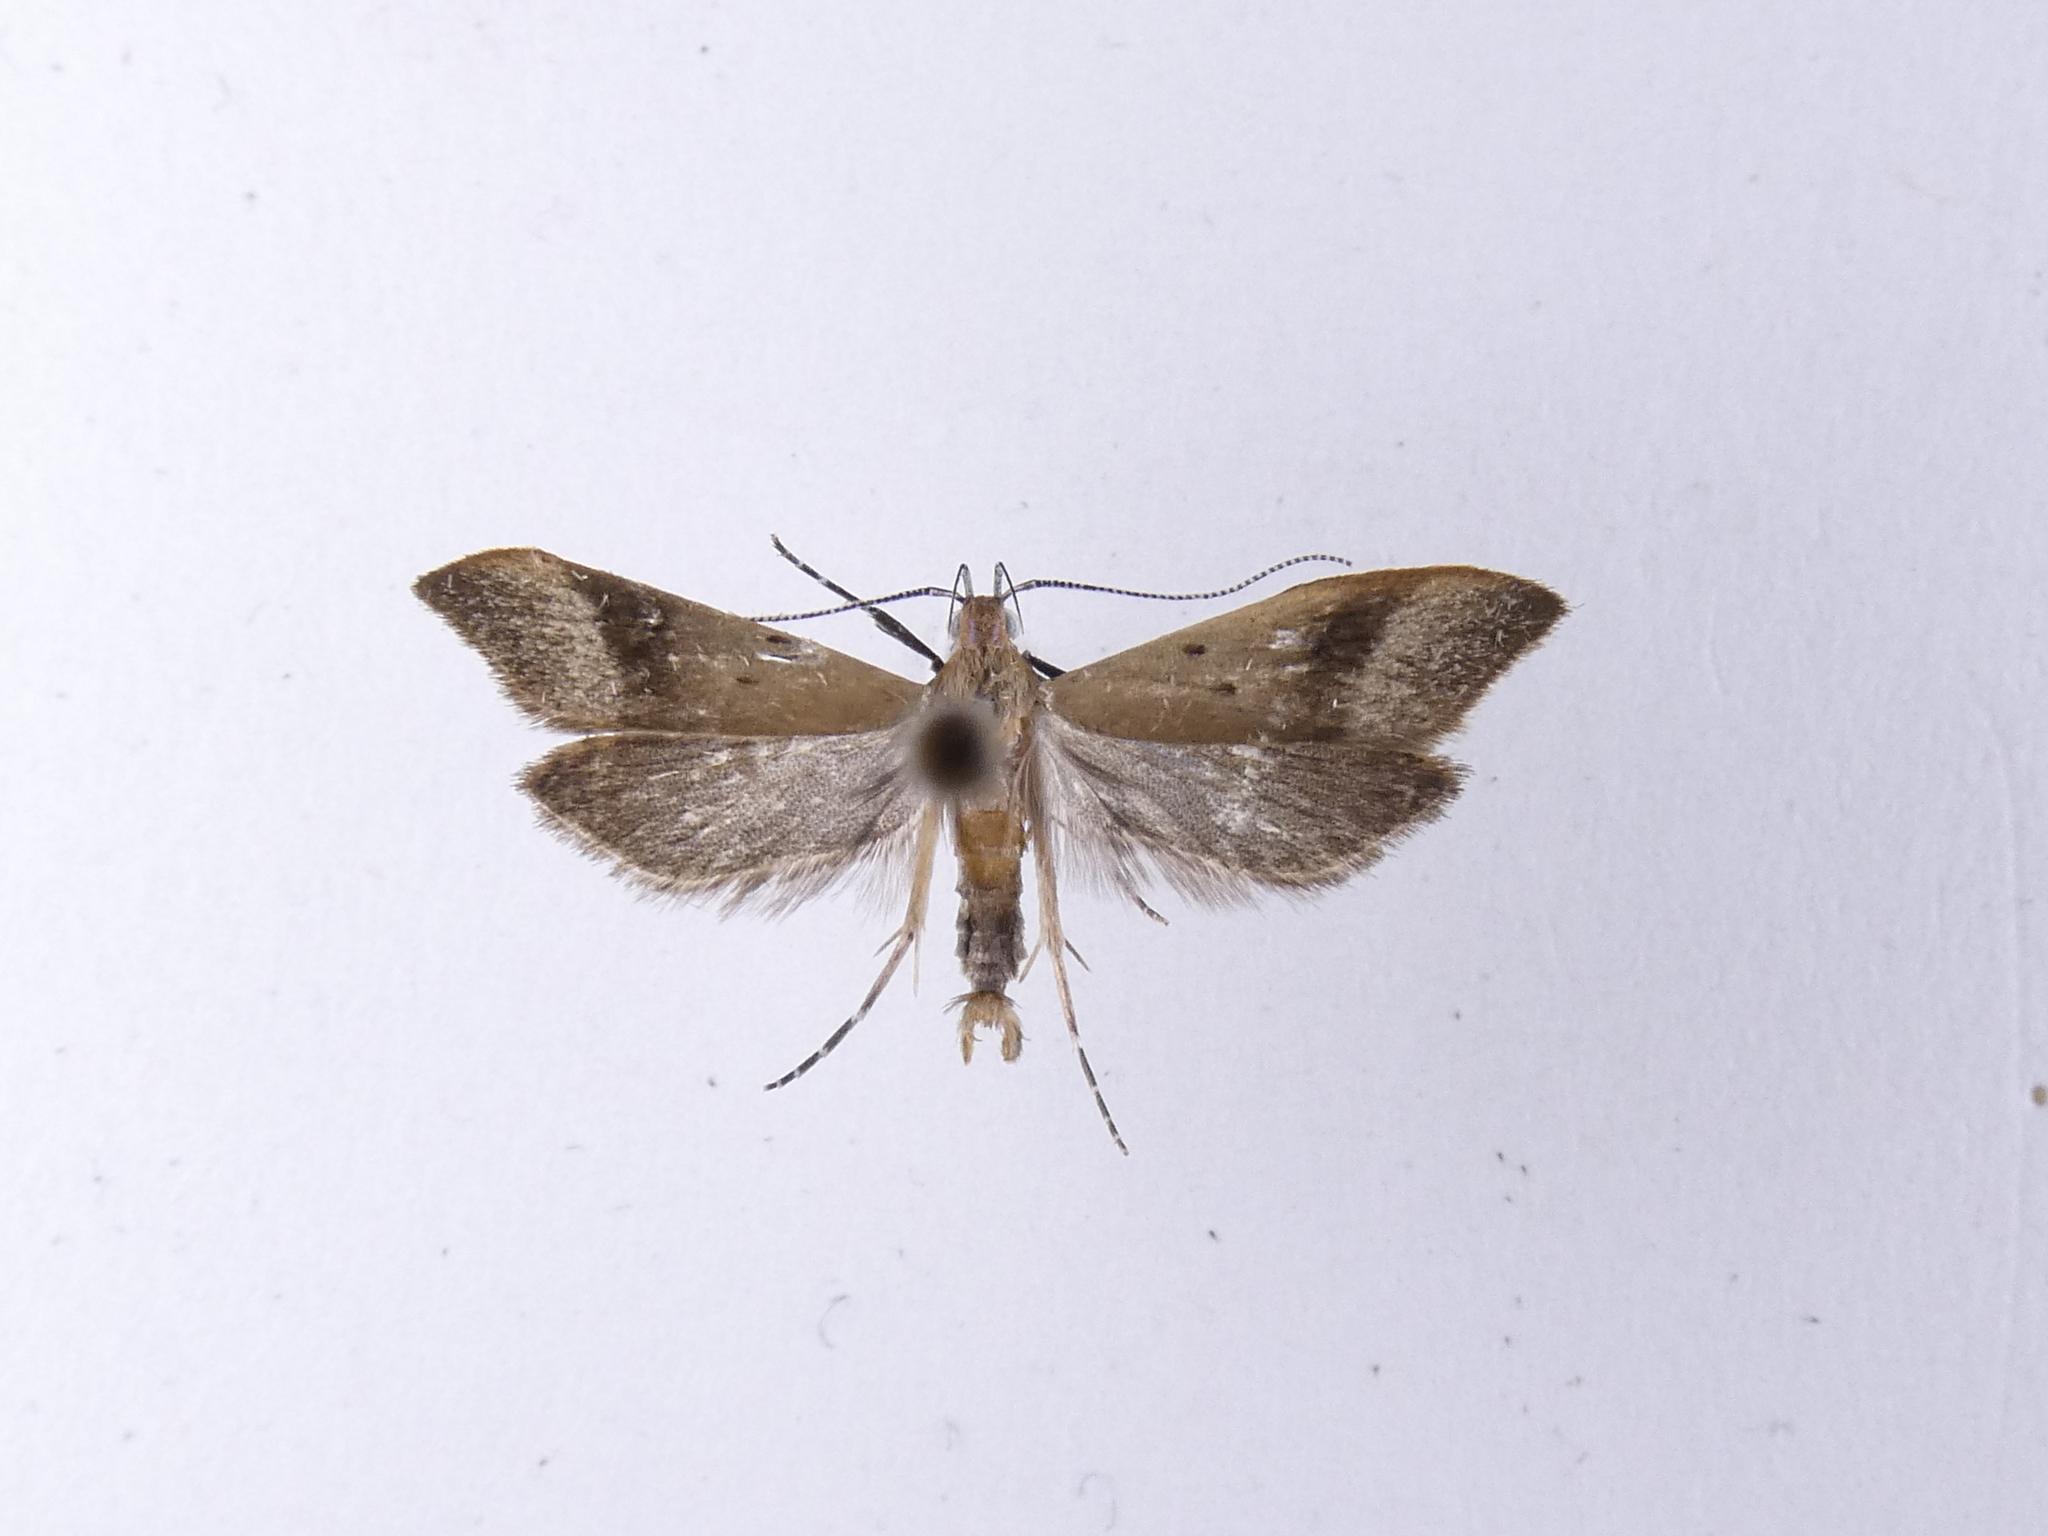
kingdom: Animalia
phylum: Arthropoda
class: Insecta
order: Lepidoptera
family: Oecophoridae
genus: Gymnobathra
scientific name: Gymnobathra hyetodes
